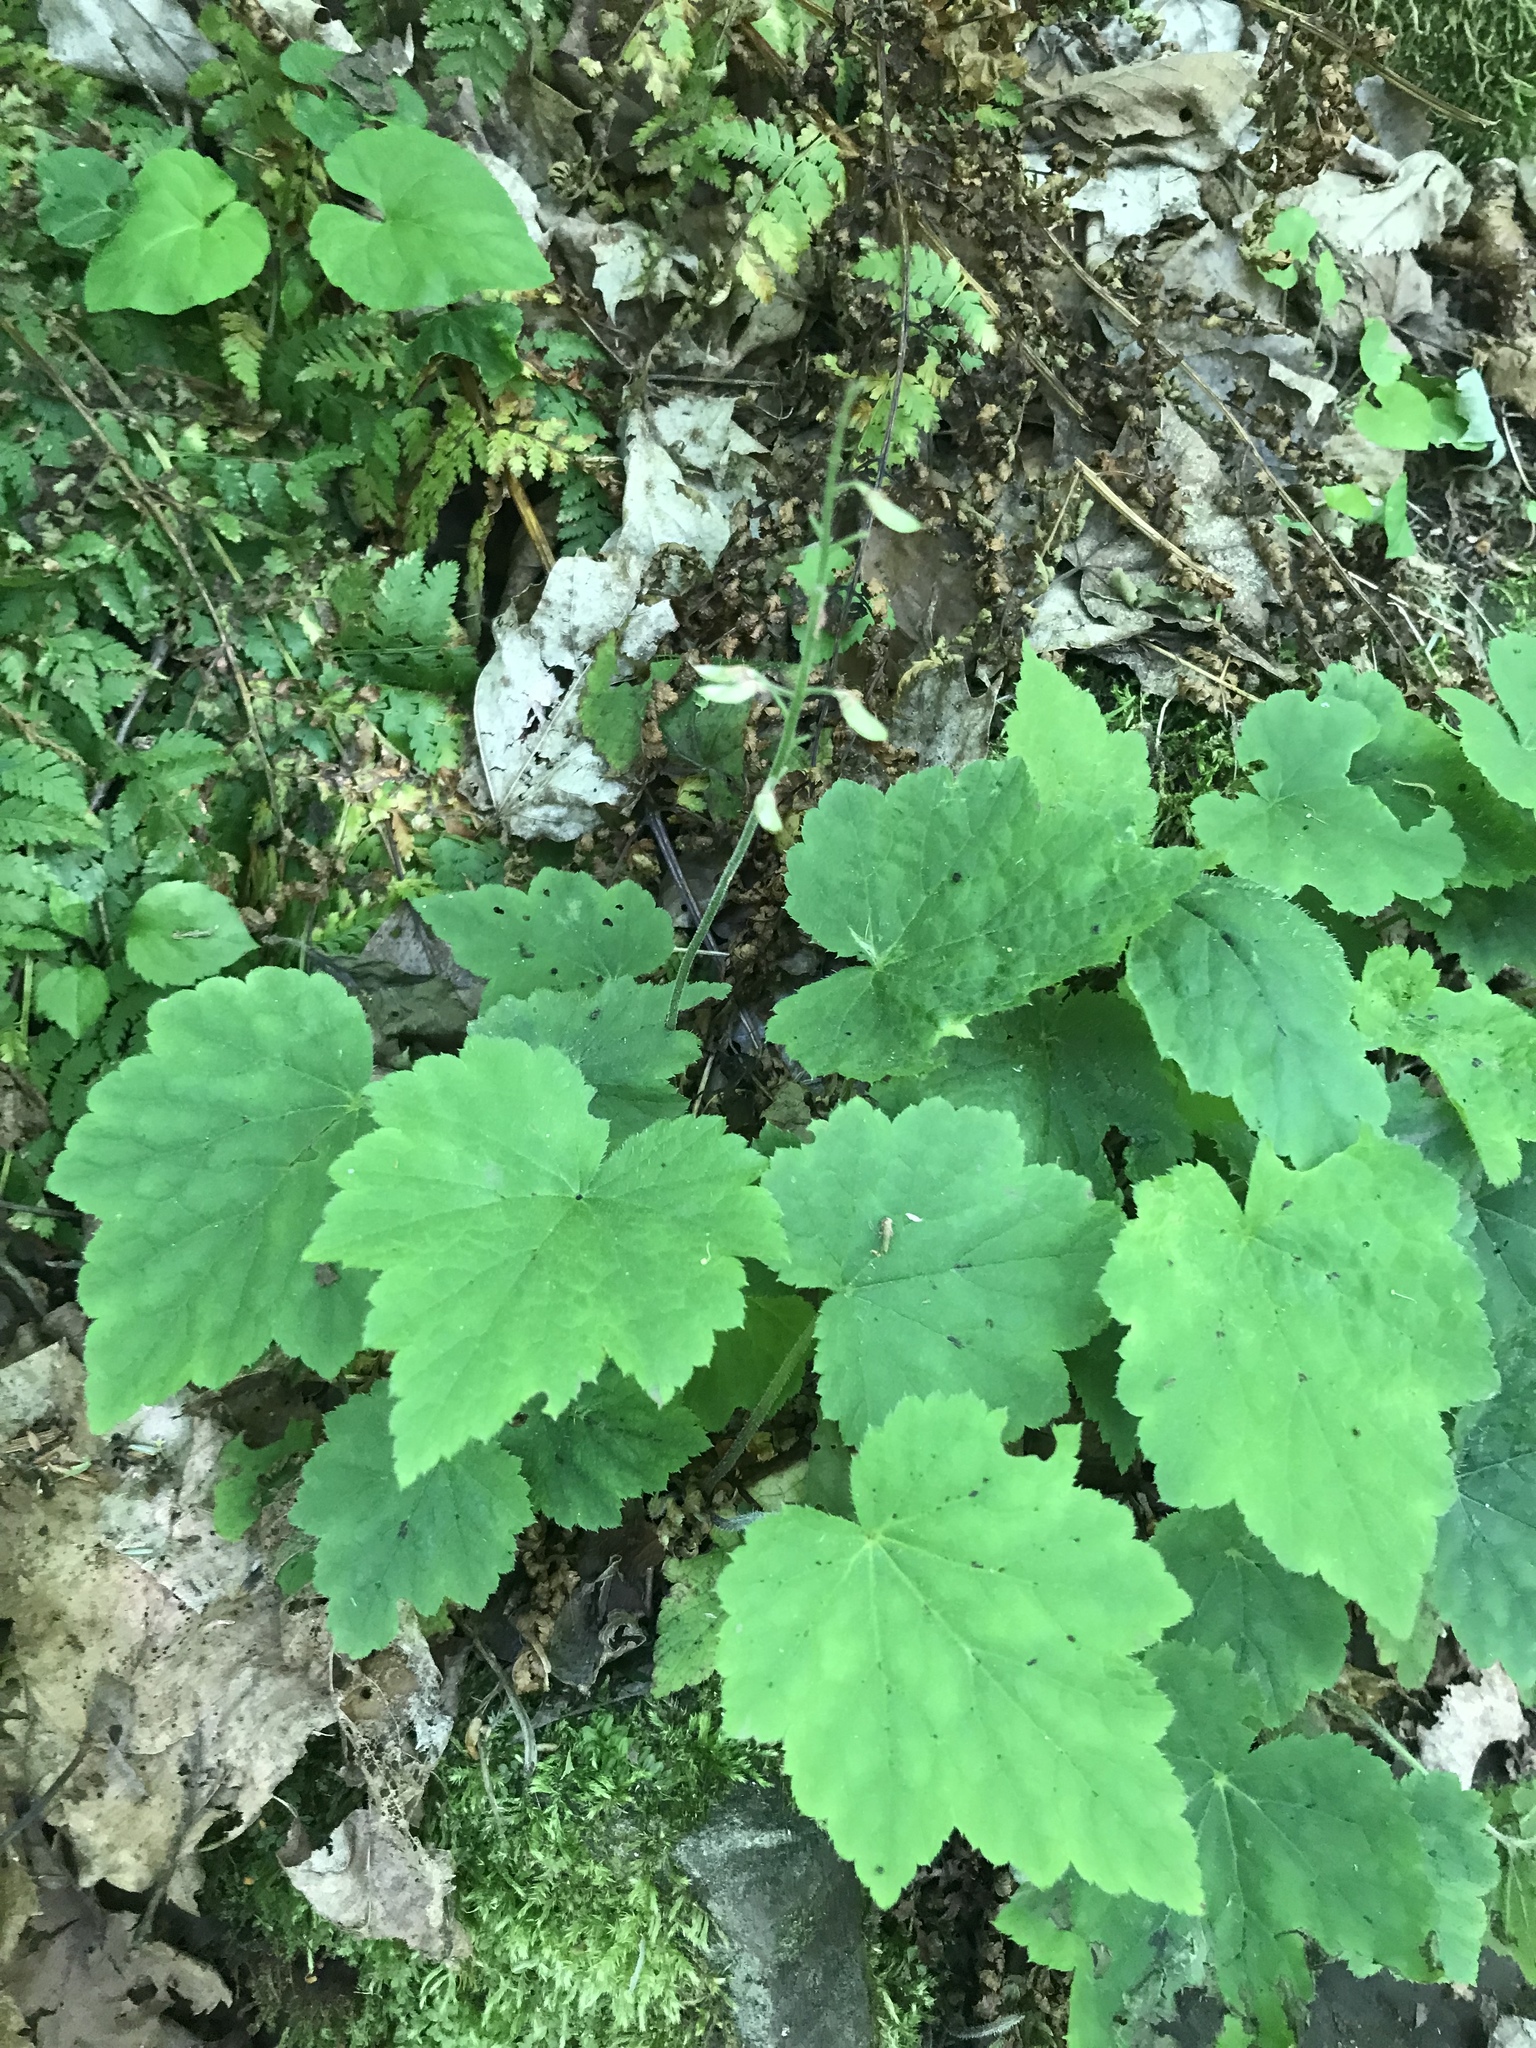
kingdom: Plantae
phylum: Tracheophyta
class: Magnoliopsida
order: Saxifragales
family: Saxifragaceae
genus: Tiarella
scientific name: Tiarella stolonifera
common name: Stoloniferous foamflower
